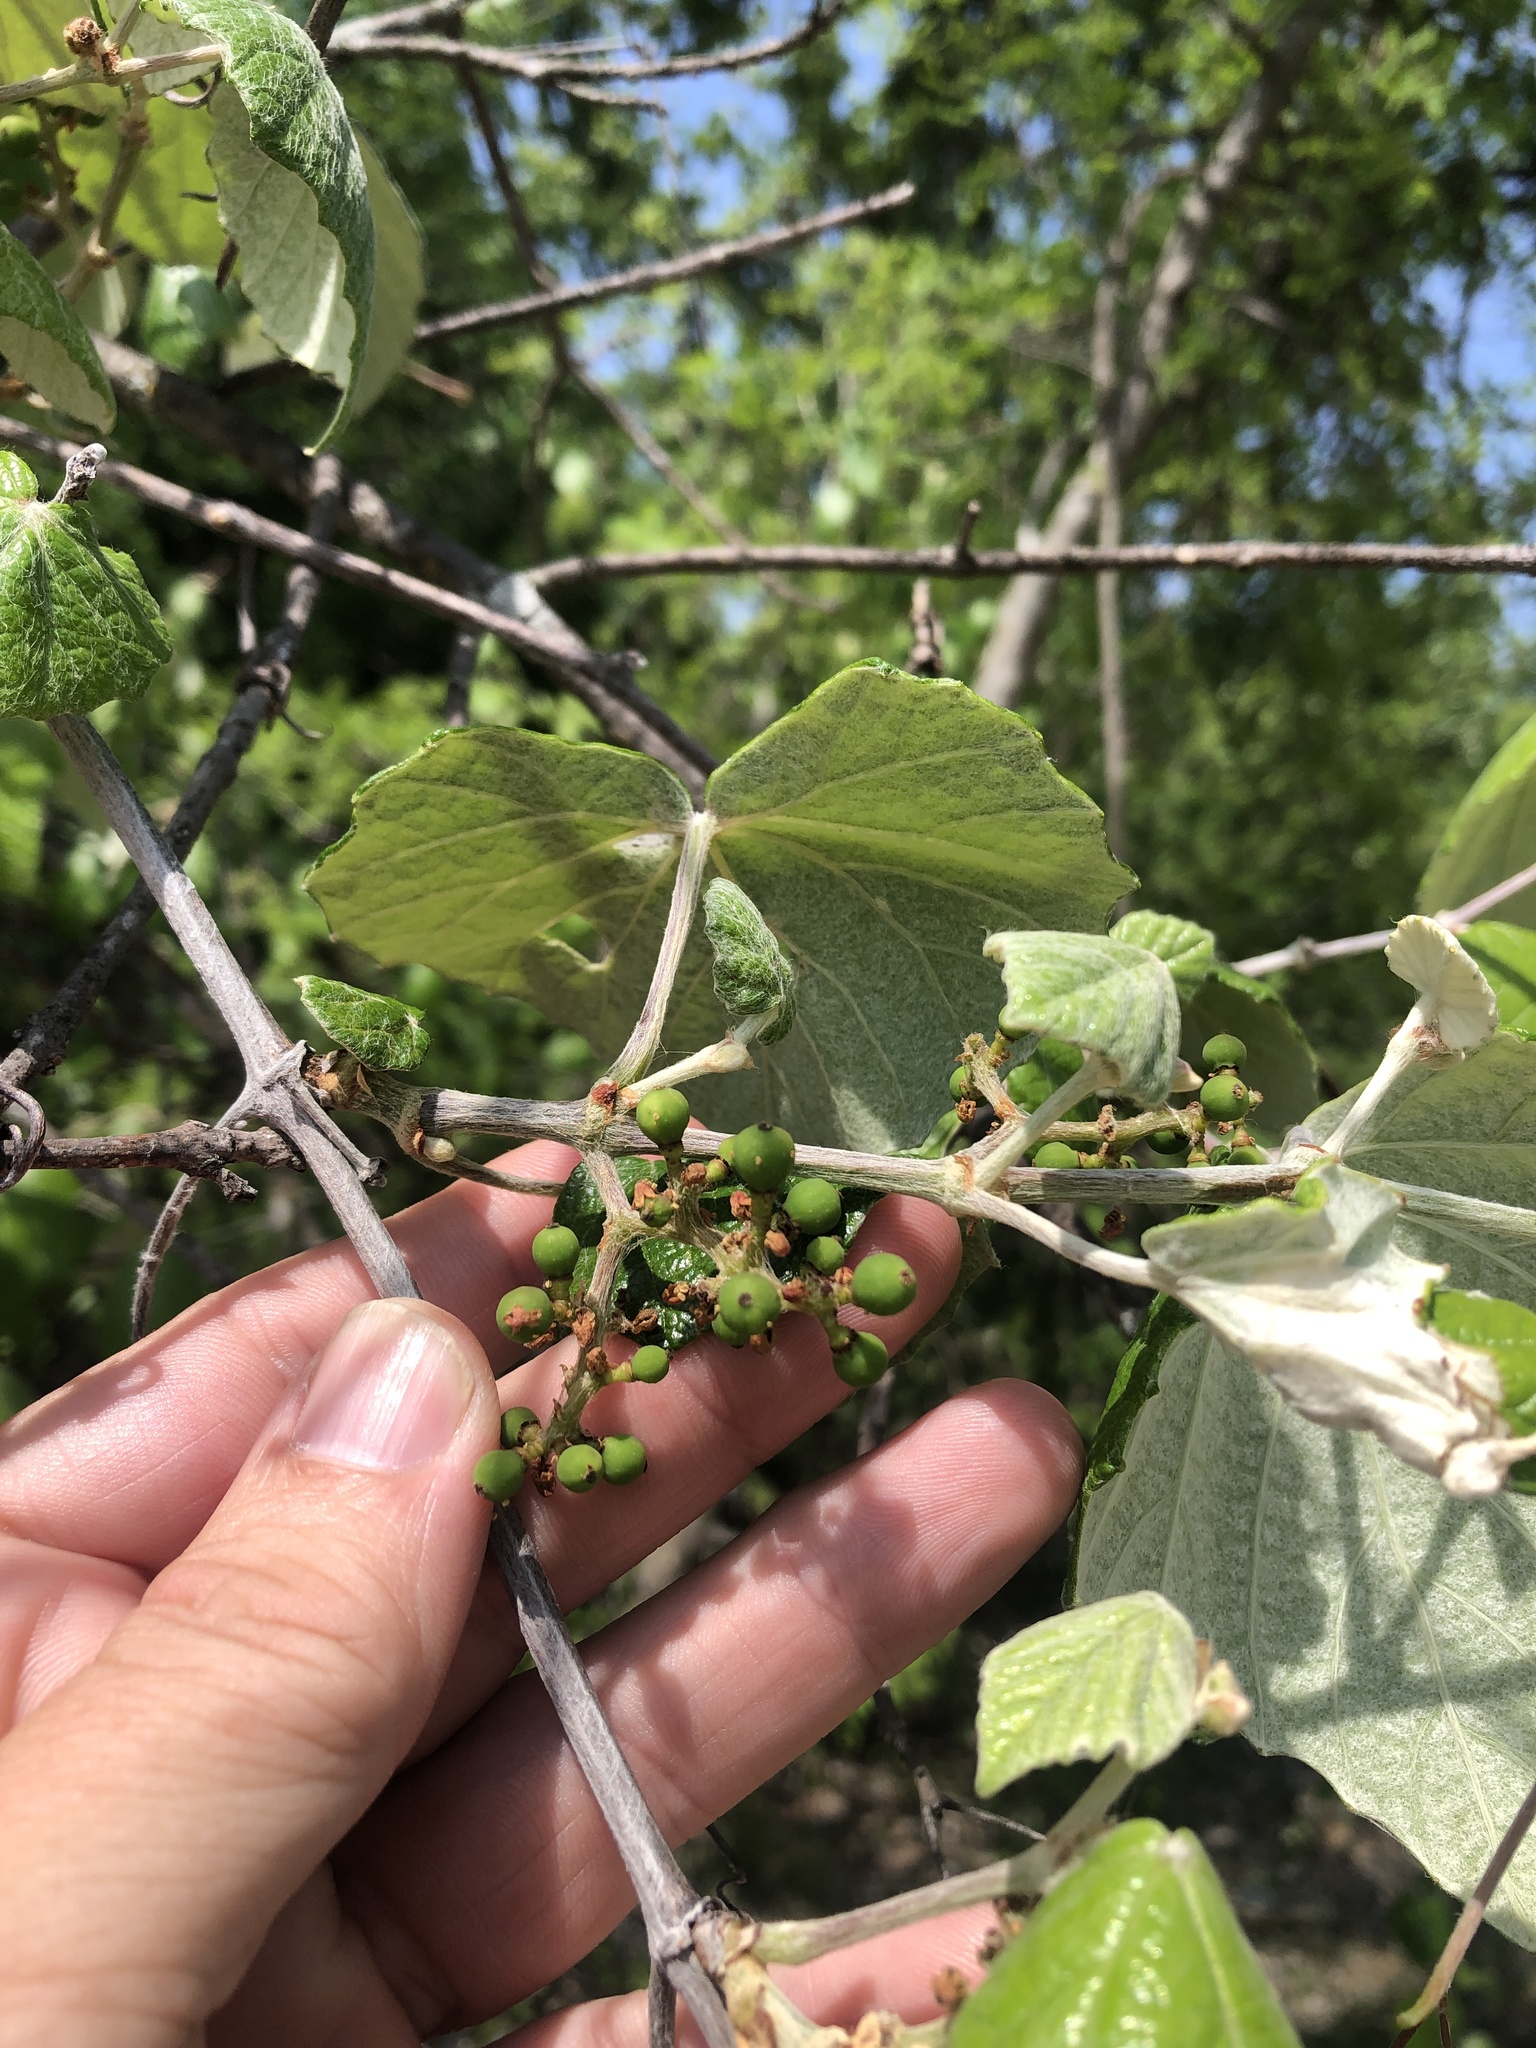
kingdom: Plantae
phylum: Tracheophyta
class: Magnoliopsida
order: Vitales
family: Vitaceae
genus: Vitis
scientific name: Vitis mustangensis
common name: Mustang grape
